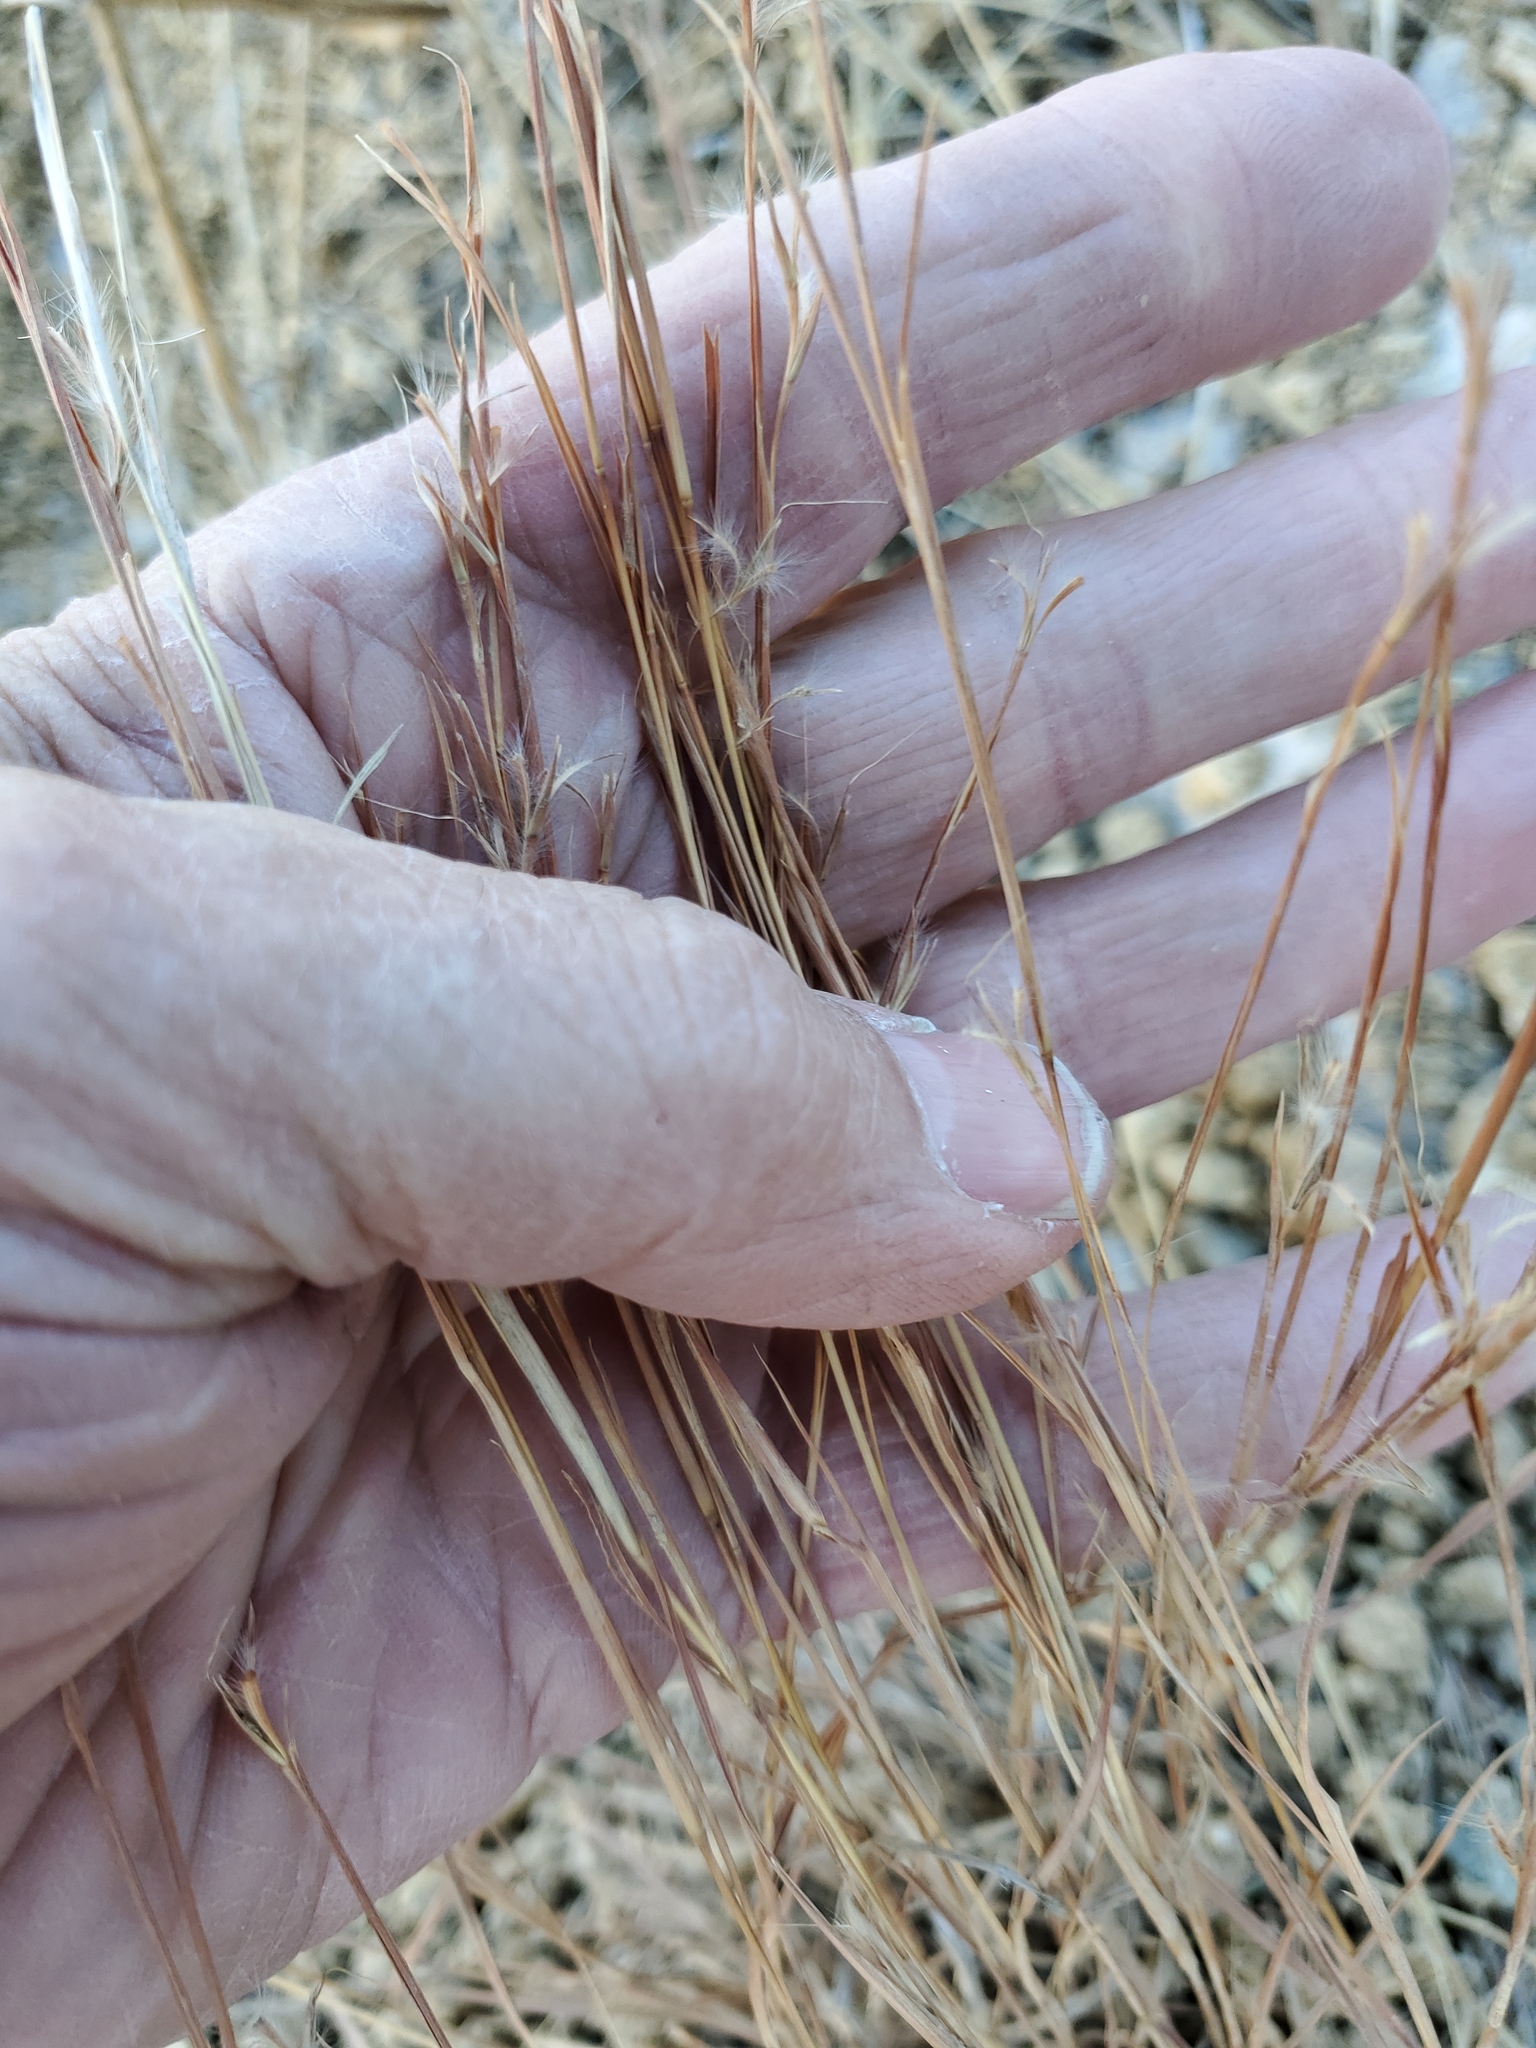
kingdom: Plantae
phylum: Tracheophyta
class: Liliopsida
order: Poales
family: Poaceae
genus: Schizachyrium
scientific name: Schizachyrium scoparium
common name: Little bluestem
